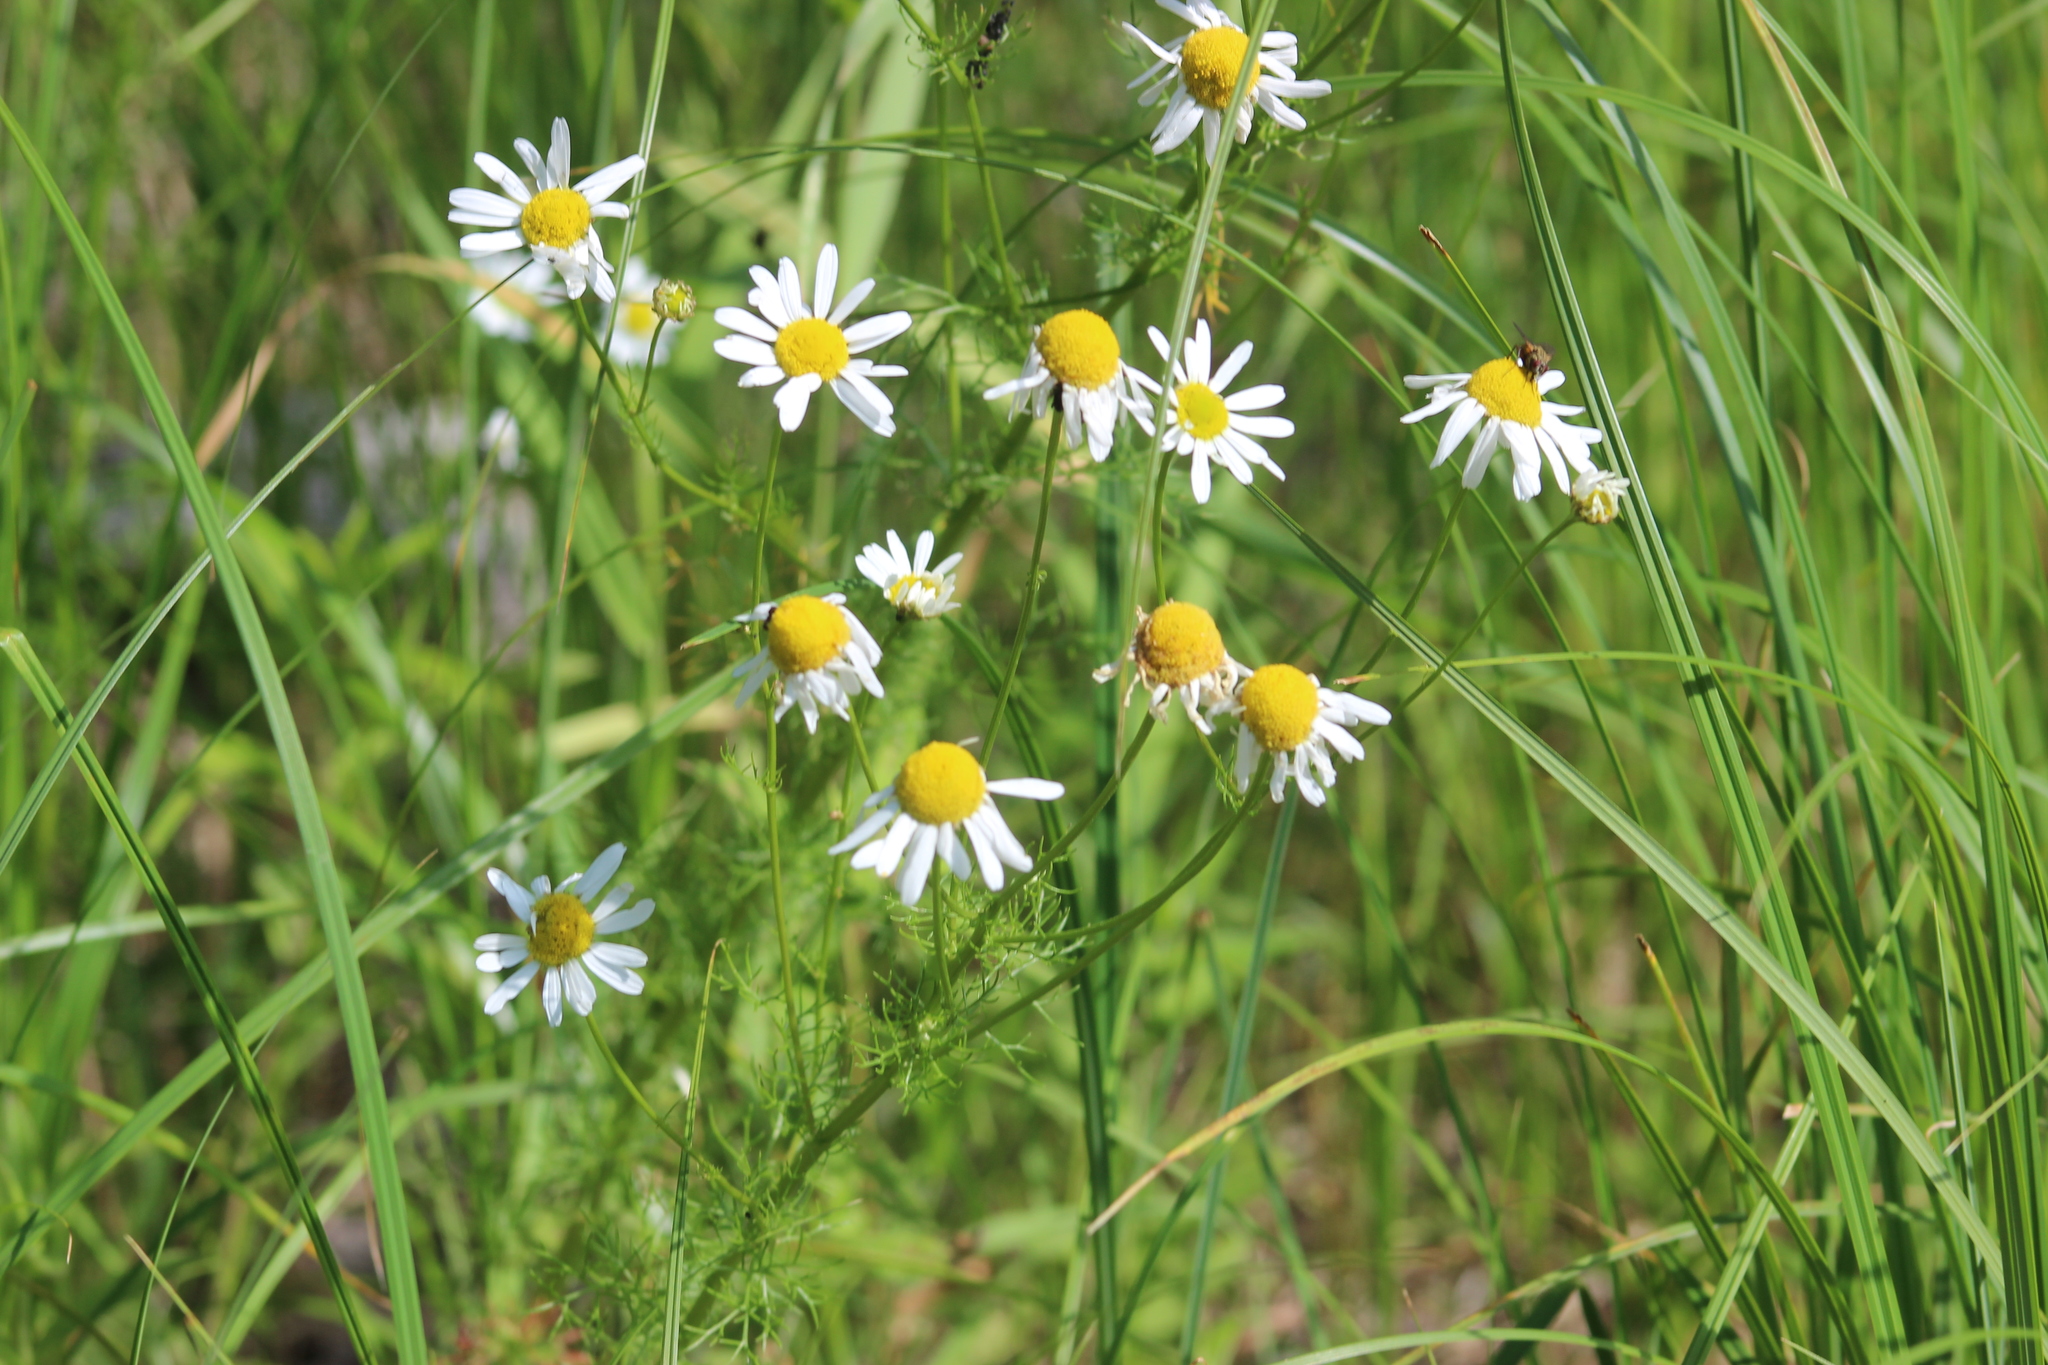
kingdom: Plantae
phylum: Tracheophyta
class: Magnoliopsida
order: Asterales
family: Asteraceae
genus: Tripleurospermum
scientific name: Tripleurospermum inodorum
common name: Scentless mayweed
